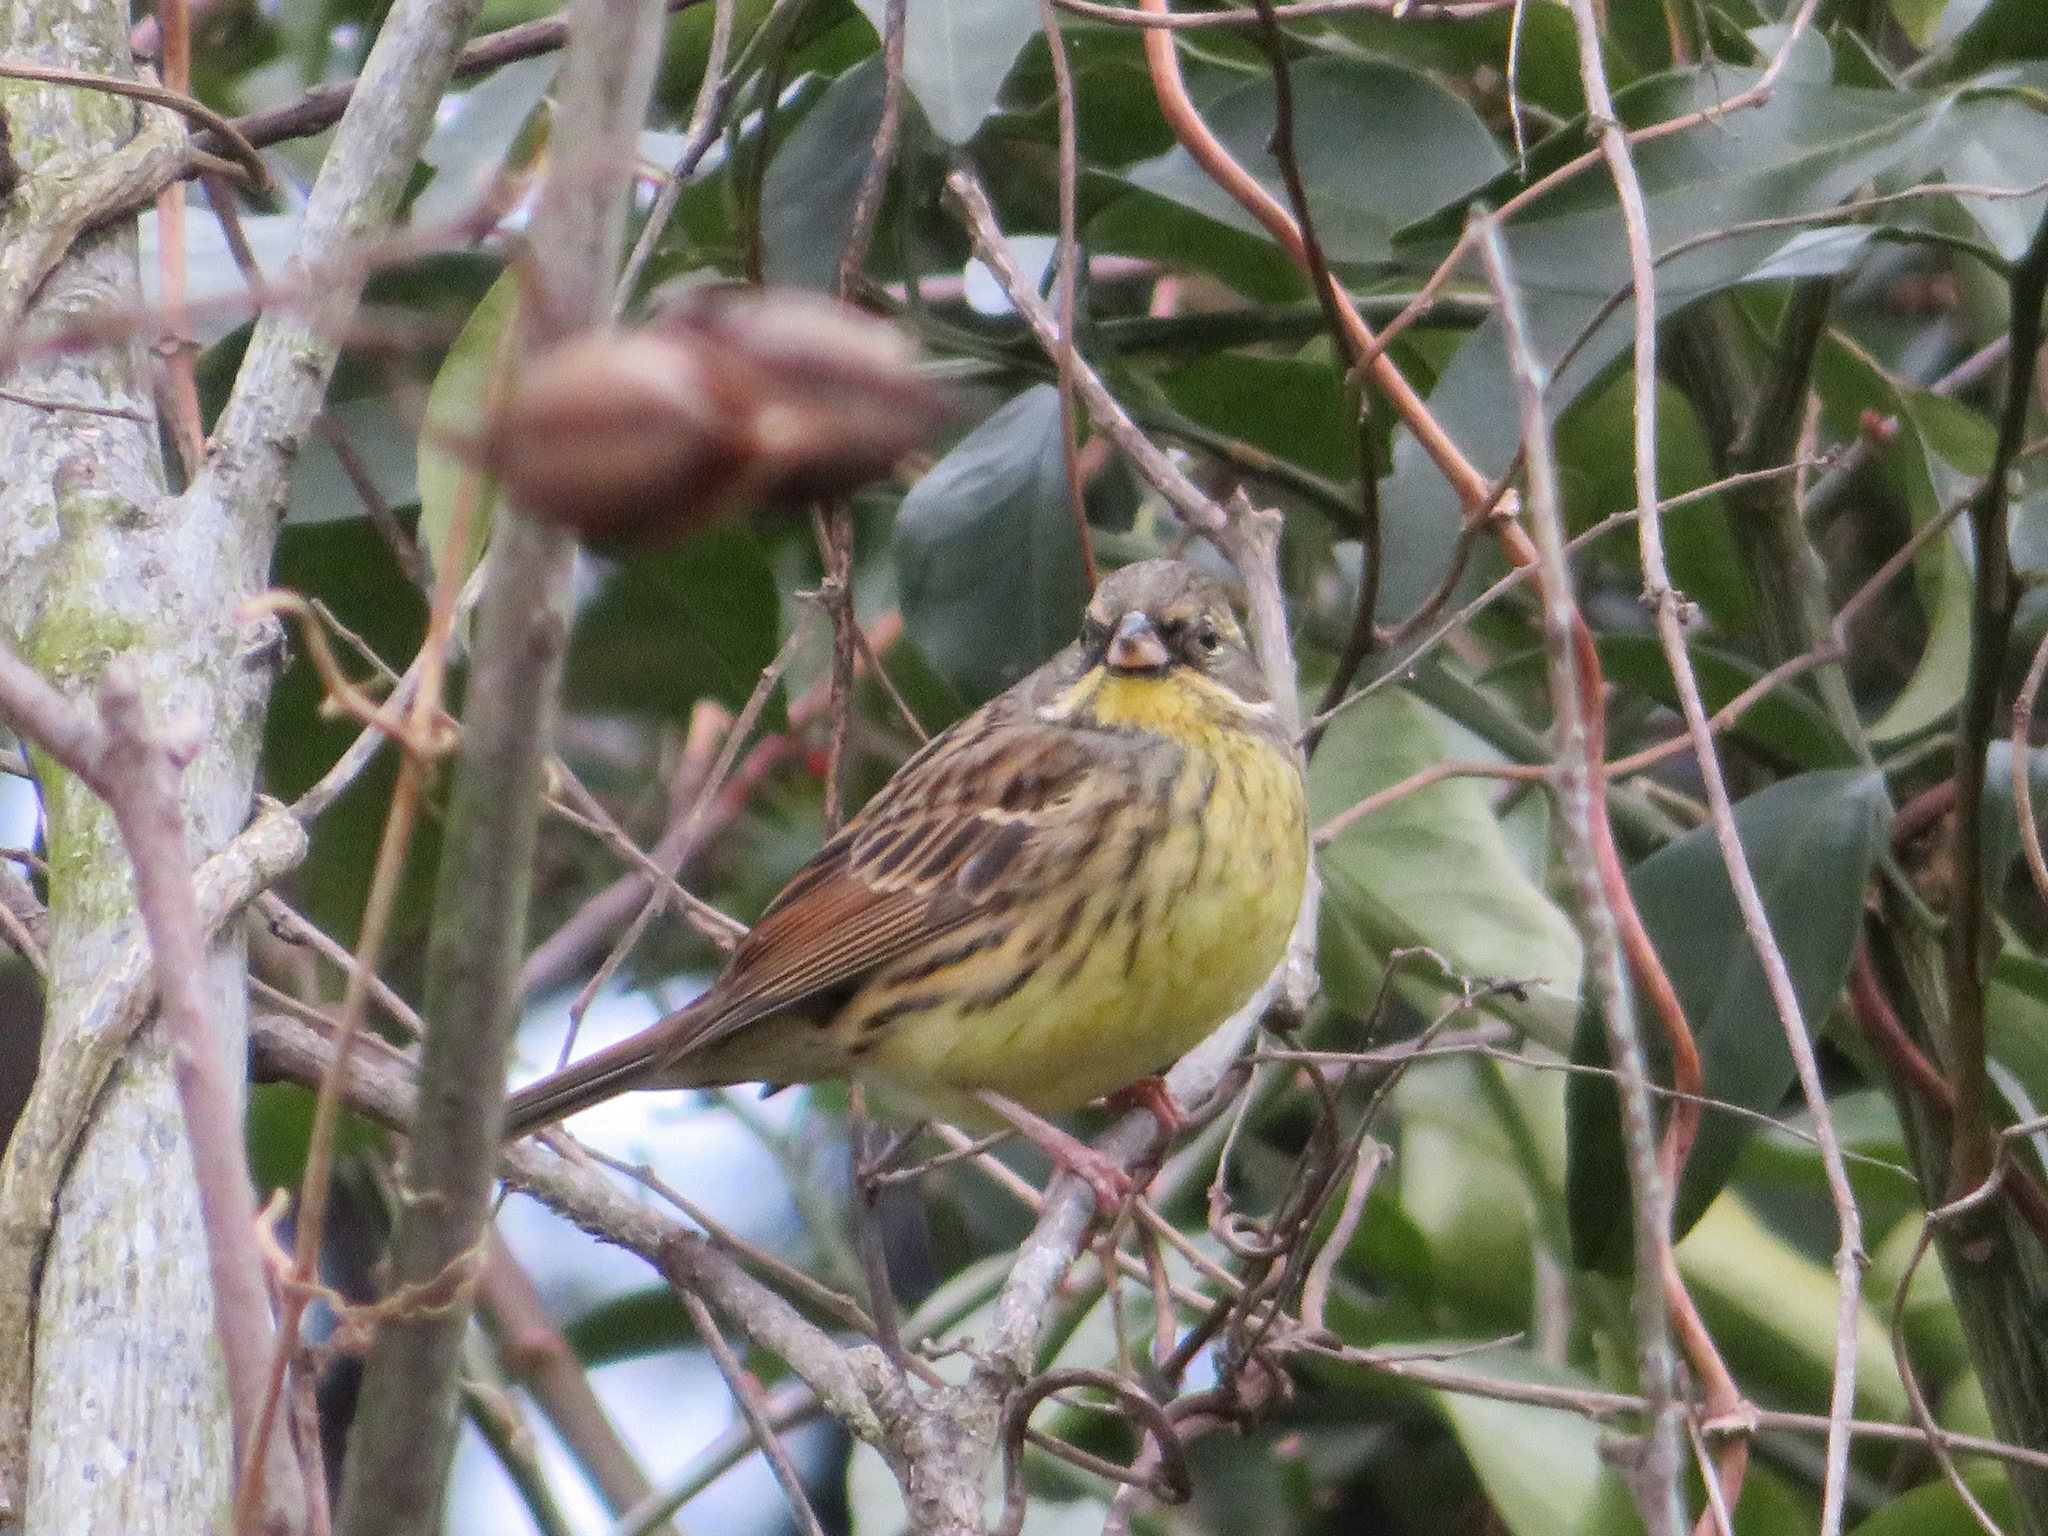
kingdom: Animalia
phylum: Chordata
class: Aves
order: Passeriformes
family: Emberizidae
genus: Emberiza
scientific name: Emberiza personata
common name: Masked bunting
